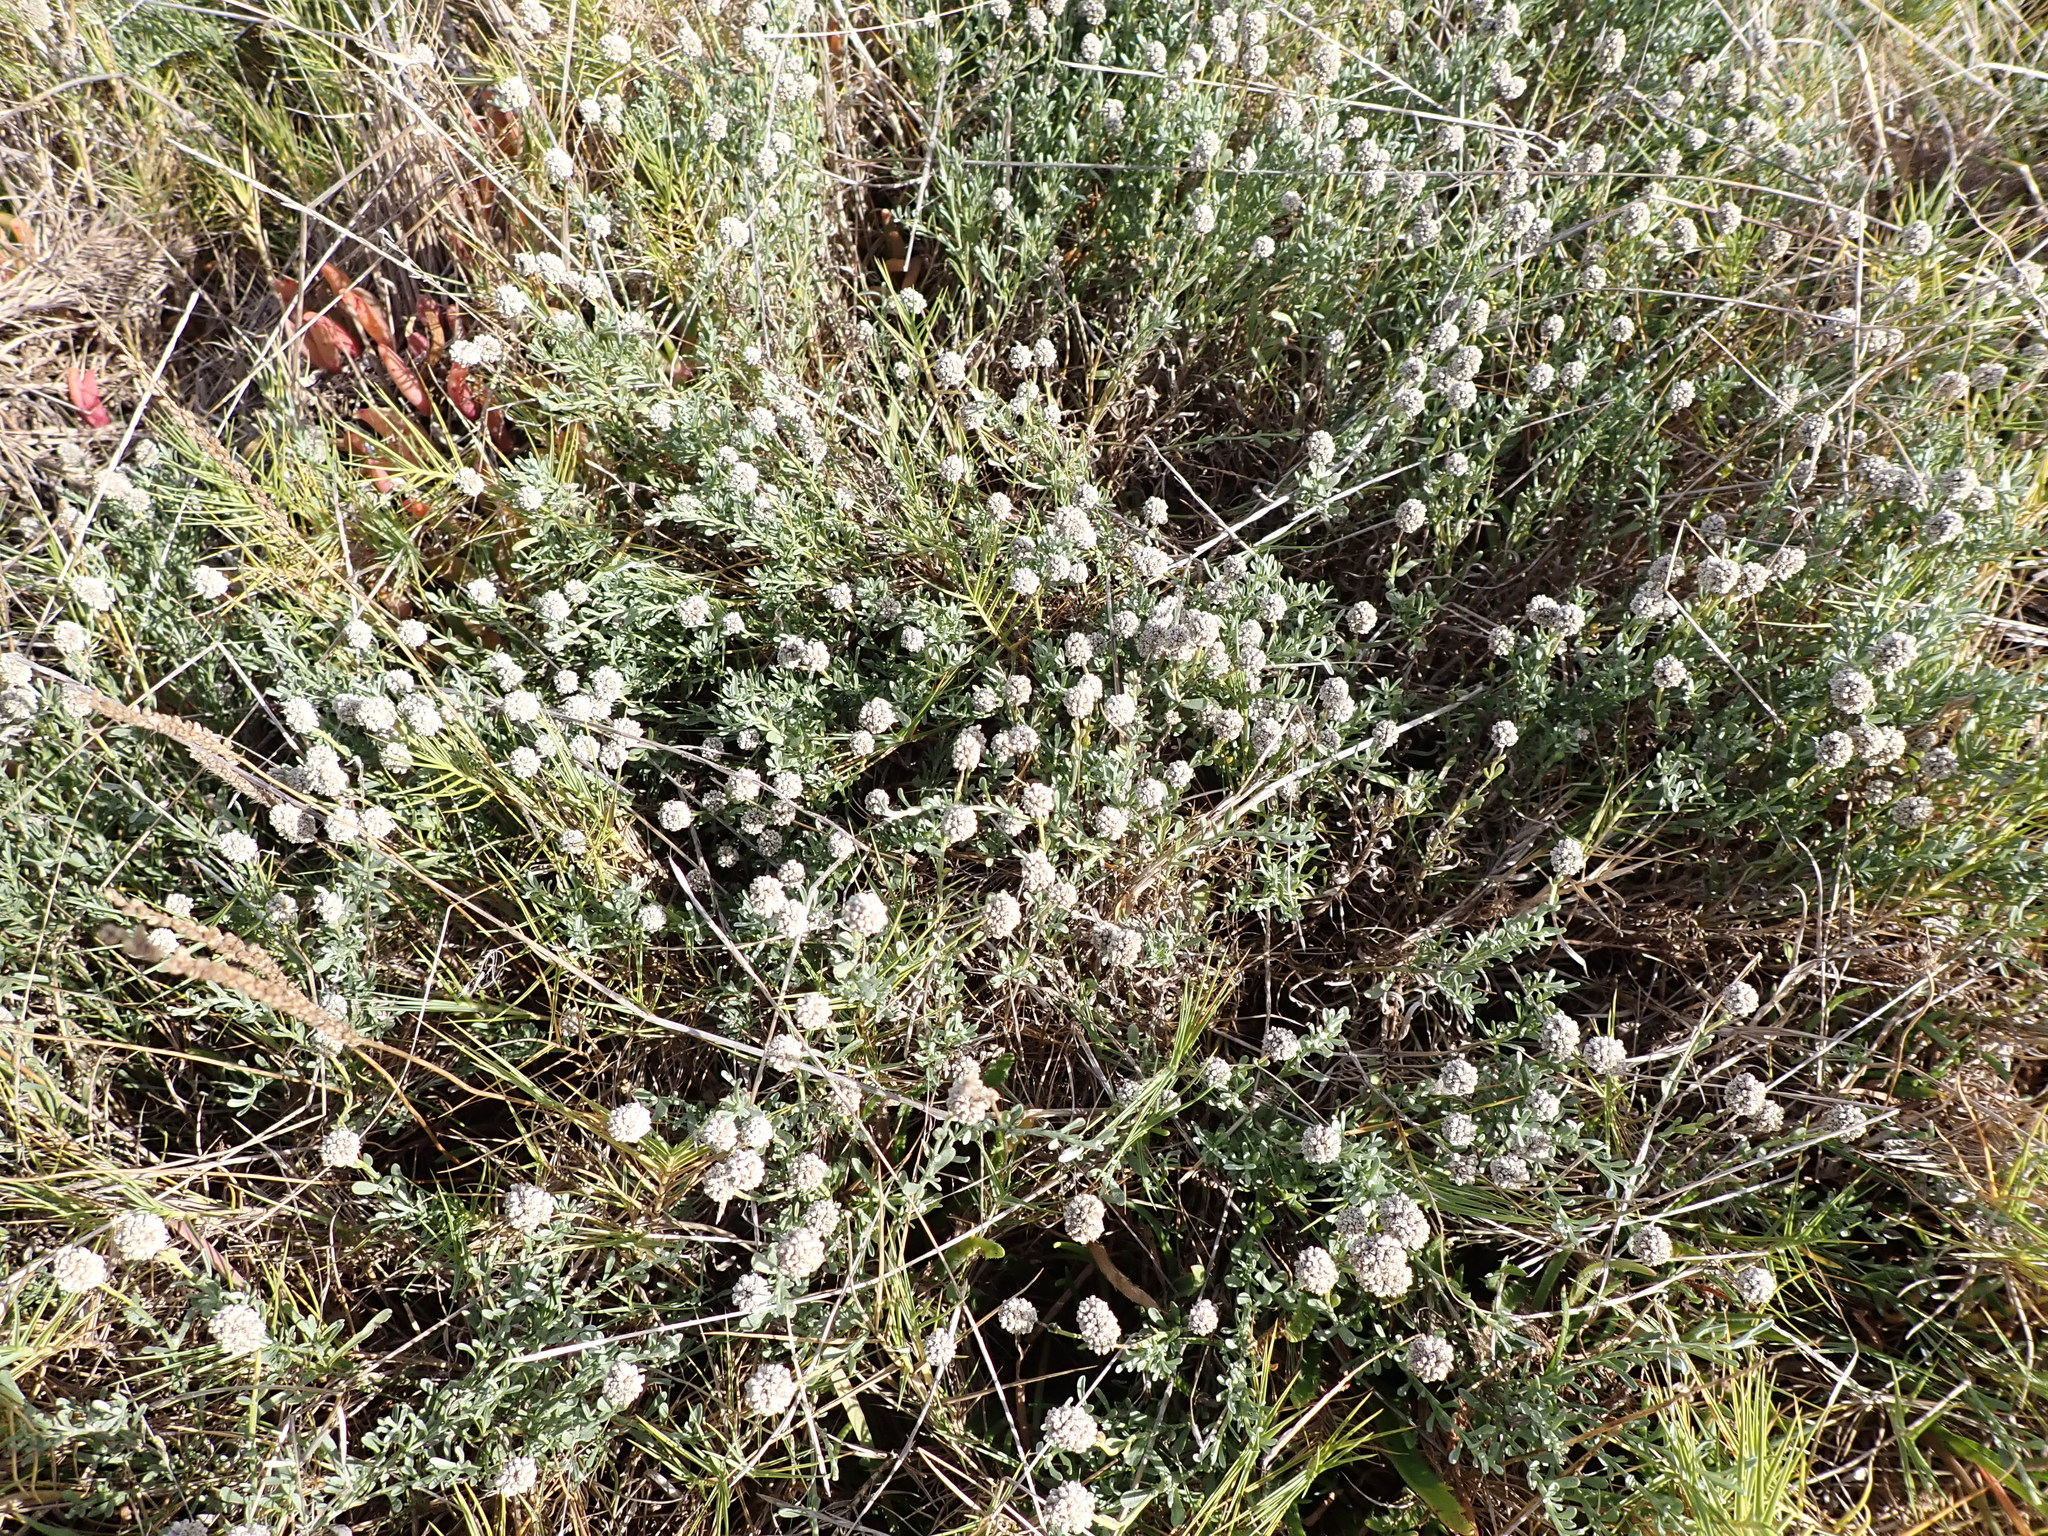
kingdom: Plantae
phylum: Tracheophyta
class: Magnoliopsida
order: Asterales
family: Asteraceae
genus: Calocephalus
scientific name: Calocephalus lacteus
